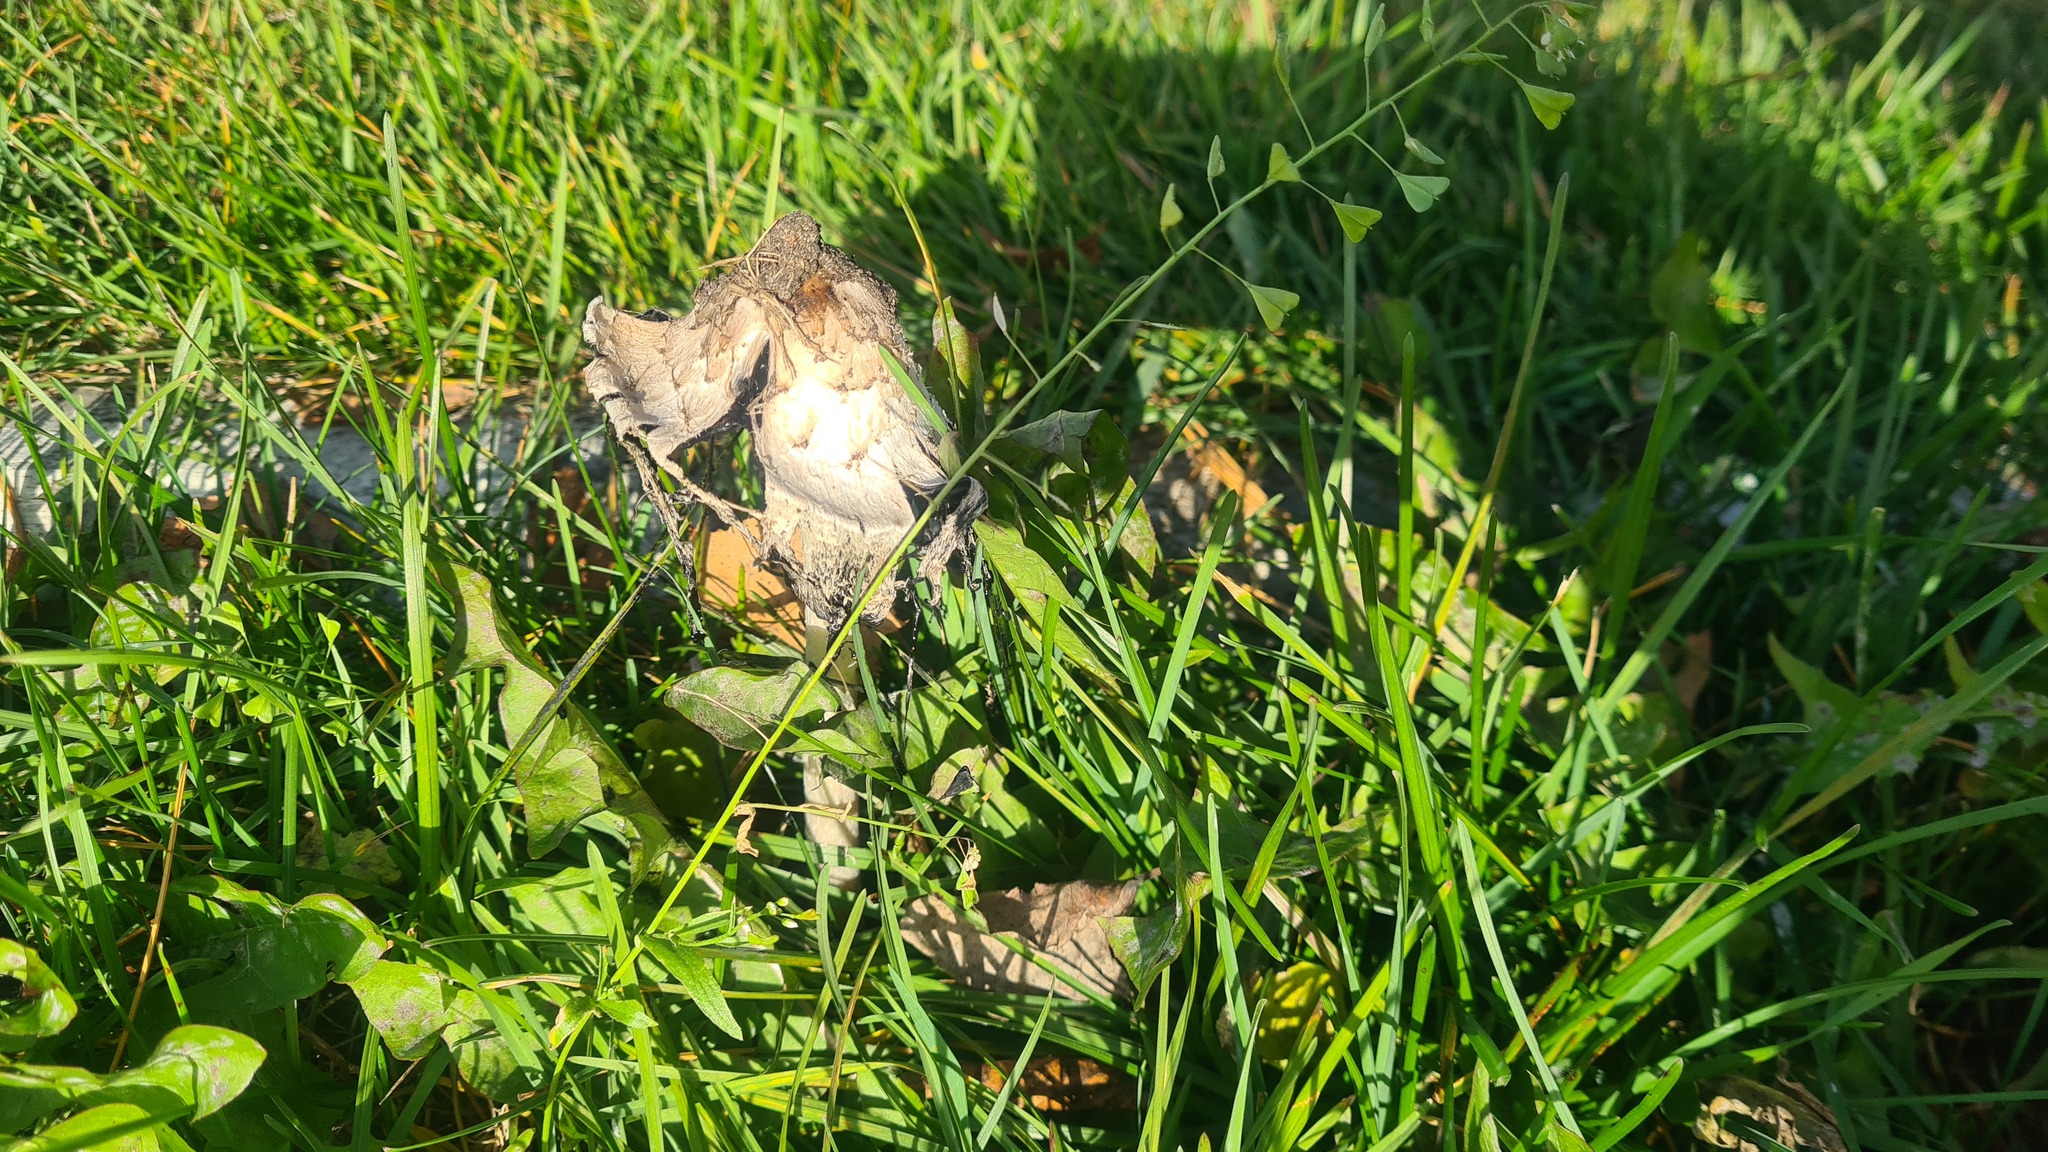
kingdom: Fungi
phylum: Basidiomycota
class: Agaricomycetes
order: Agaricales
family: Agaricaceae
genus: Coprinus
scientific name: Coprinus comatus
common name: Lawyer's wig
